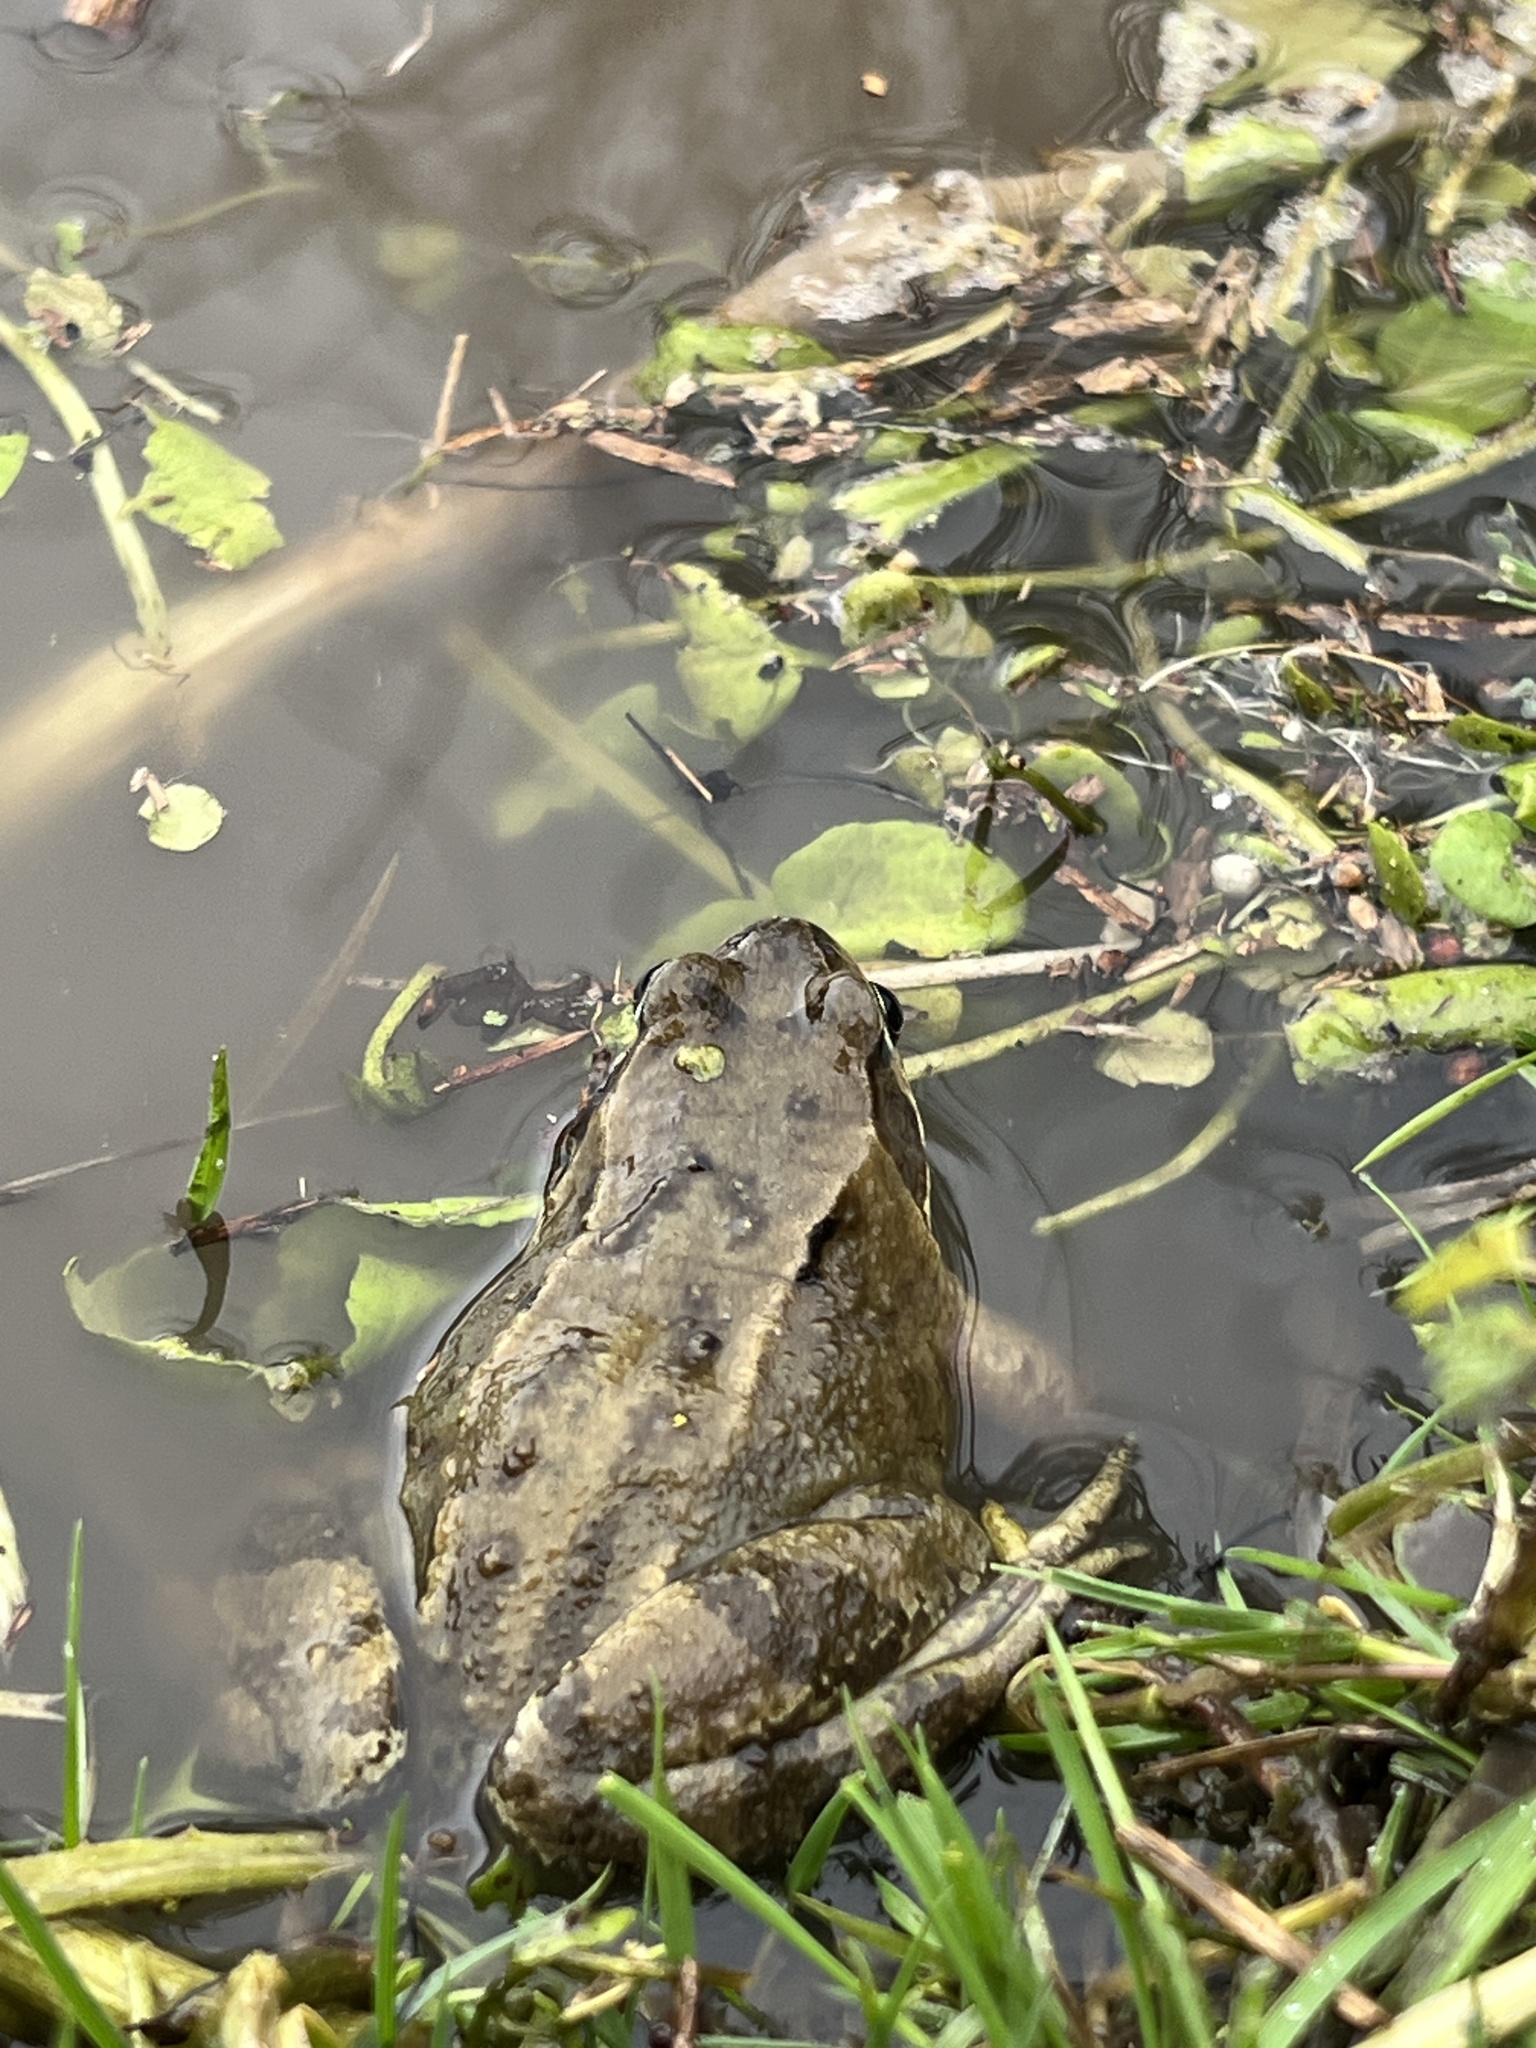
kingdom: Animalia
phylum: Chordata
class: Amphibia
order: Anura
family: Ranidae
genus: Rana
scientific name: Rana temporaria
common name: Common frog
